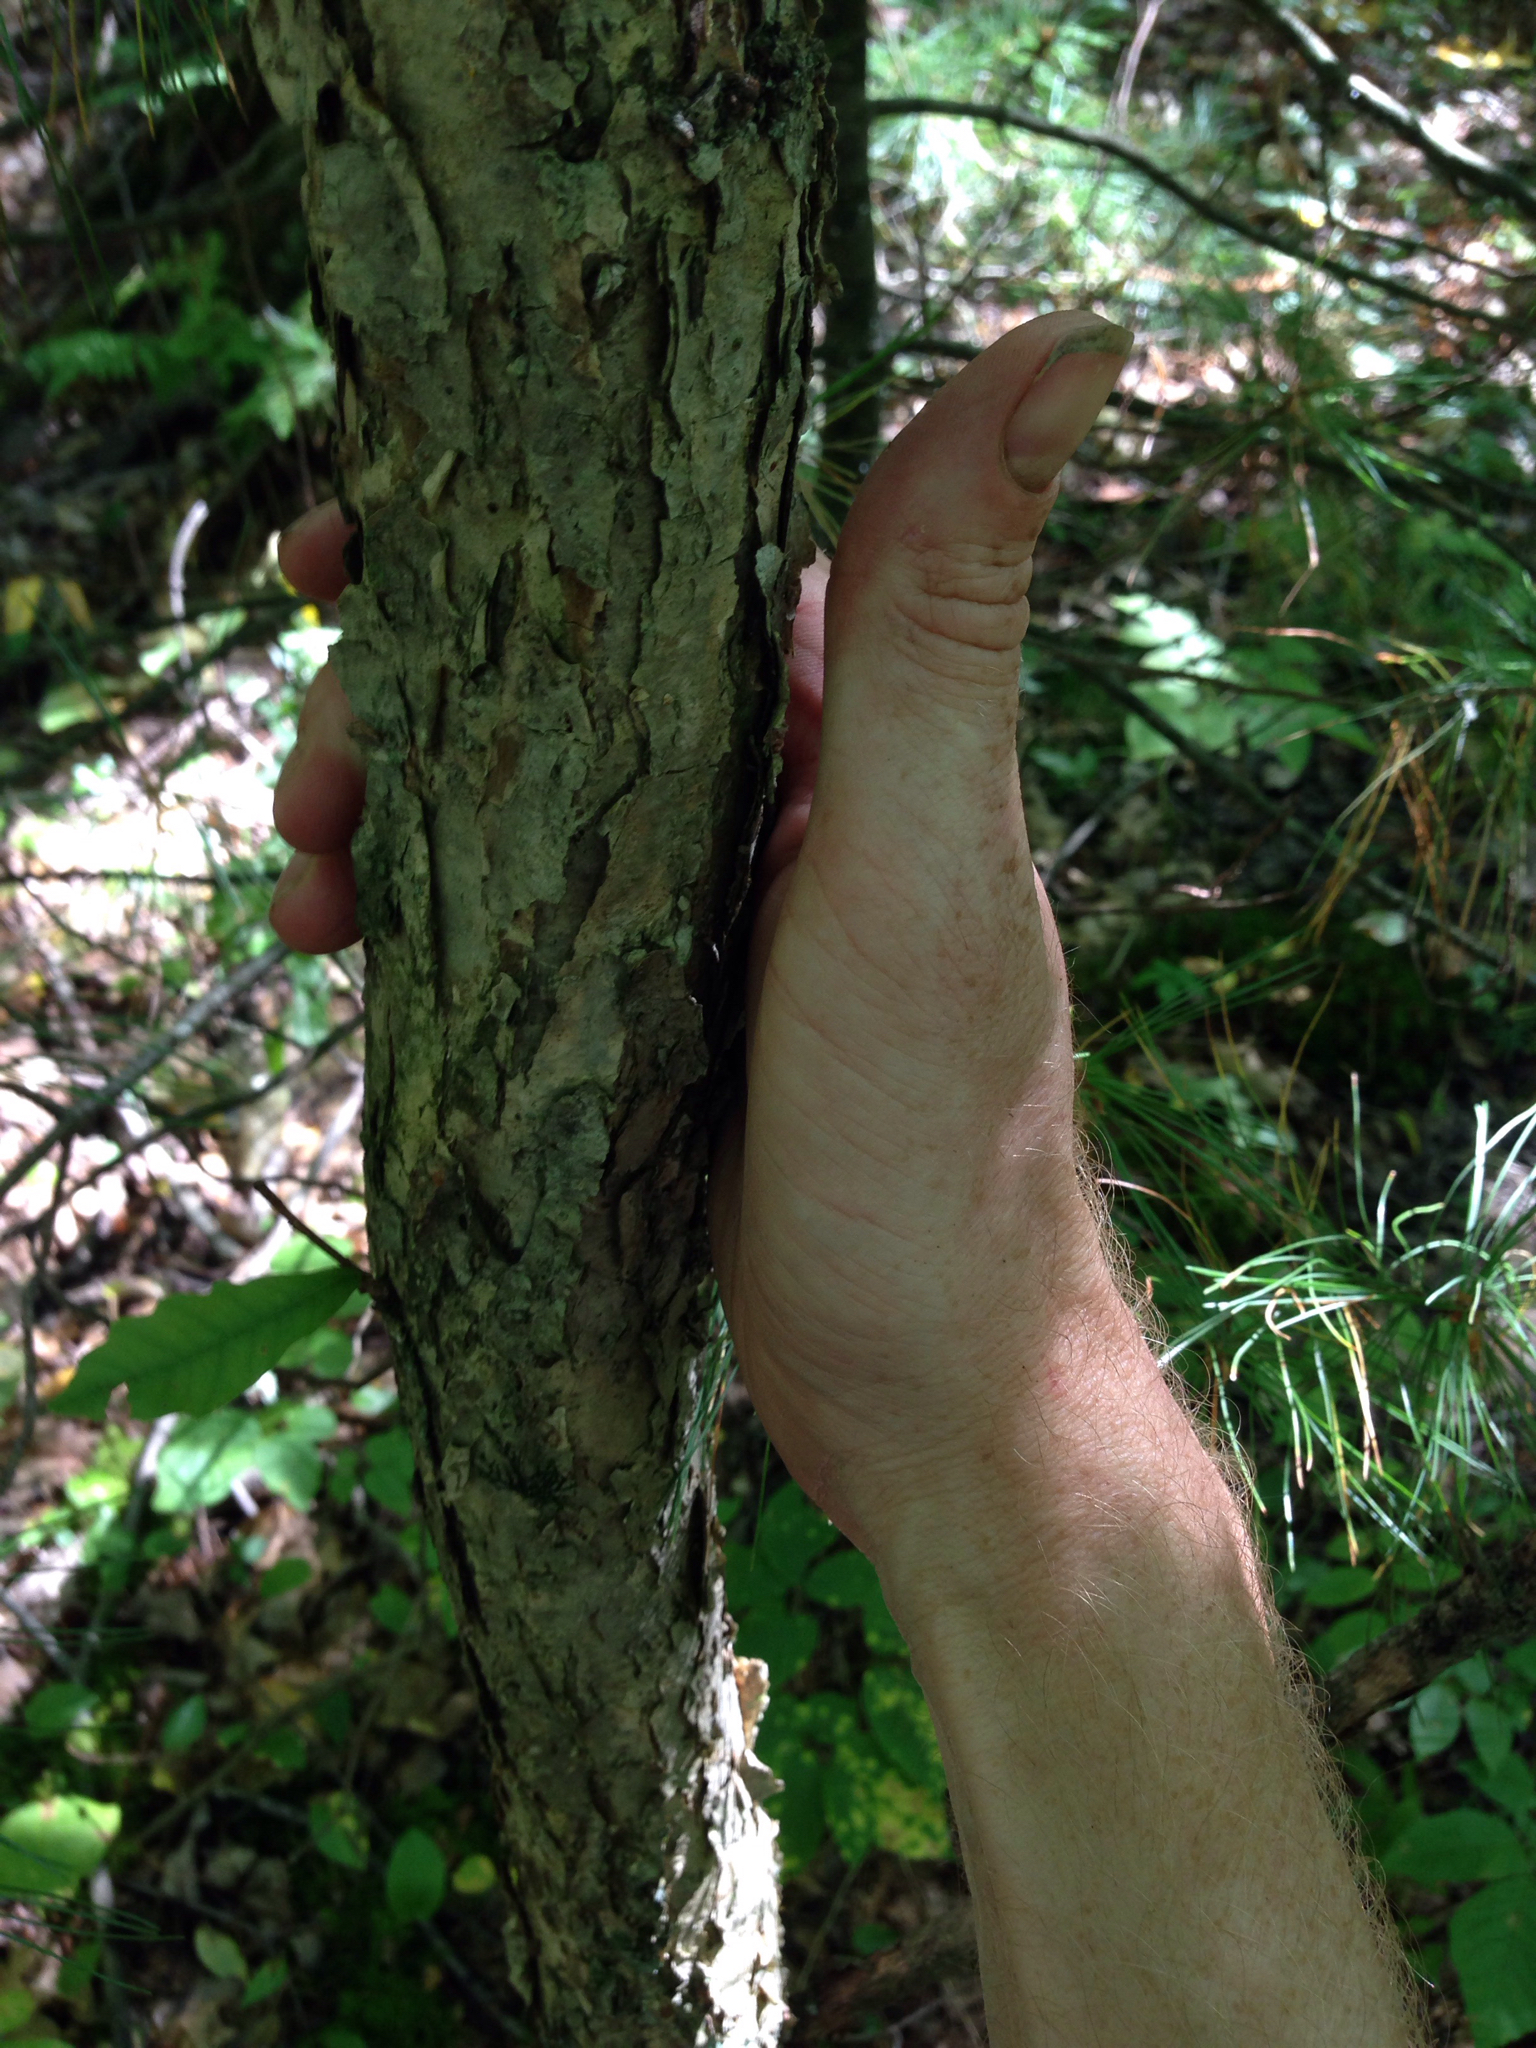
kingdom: Plantae
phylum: Tracheophyta
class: Magnoliopsida
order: Fagales
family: Fagaceae
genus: Quercus
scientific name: Quercus muehlenbergii
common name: Chinkapin oak
